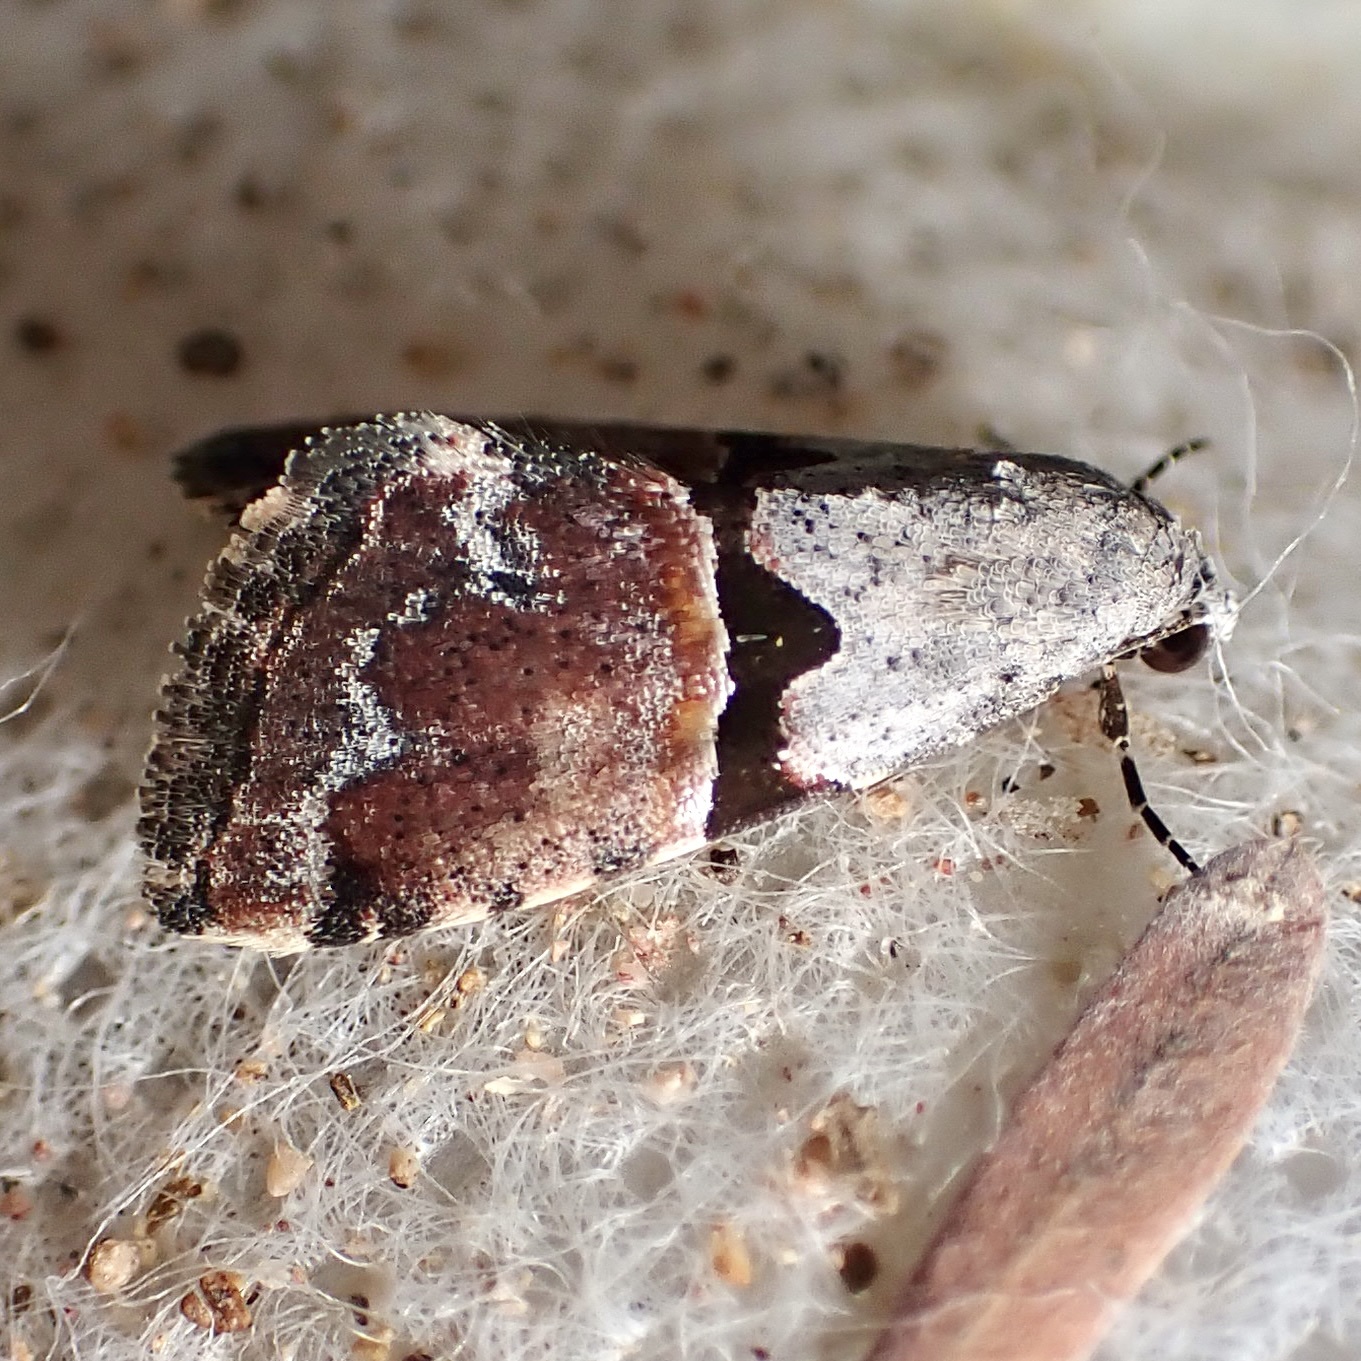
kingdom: Animalia
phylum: Arthropoda
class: Insecta
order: Lepidoptera
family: Noctuidae
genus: Cobubatha
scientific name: Cobubatha orthozona
